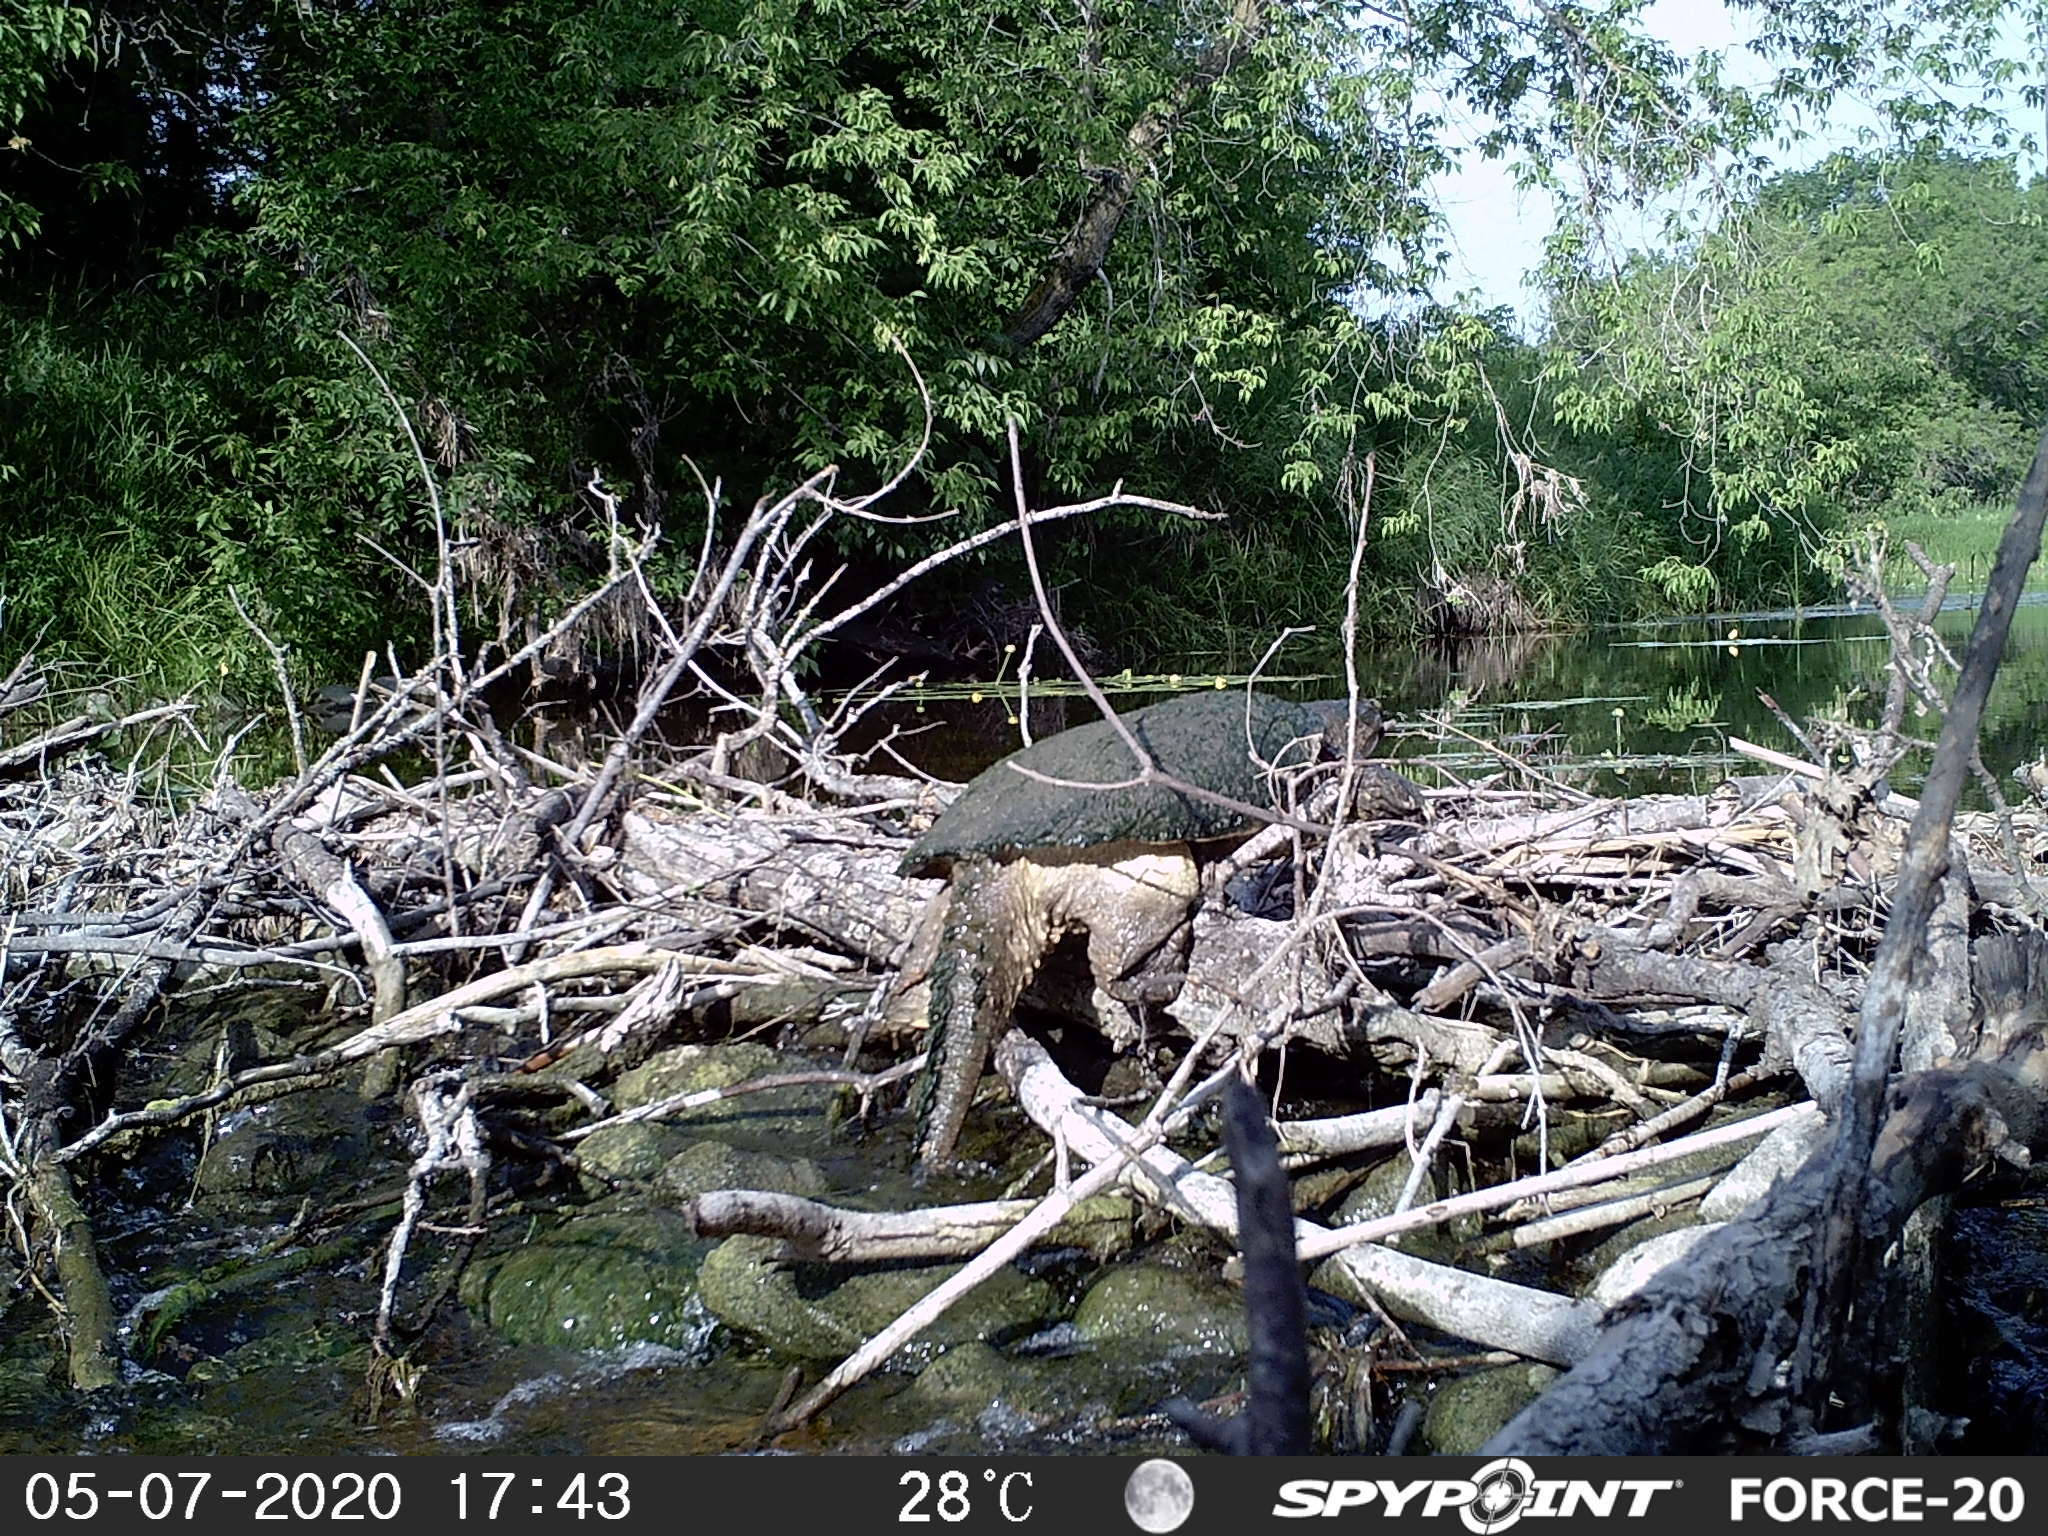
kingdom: Animalia
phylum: Chordata
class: Testudines
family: Chelydridae
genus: Chelydra
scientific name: Chelydra serpentina
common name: Common snapping turtle
